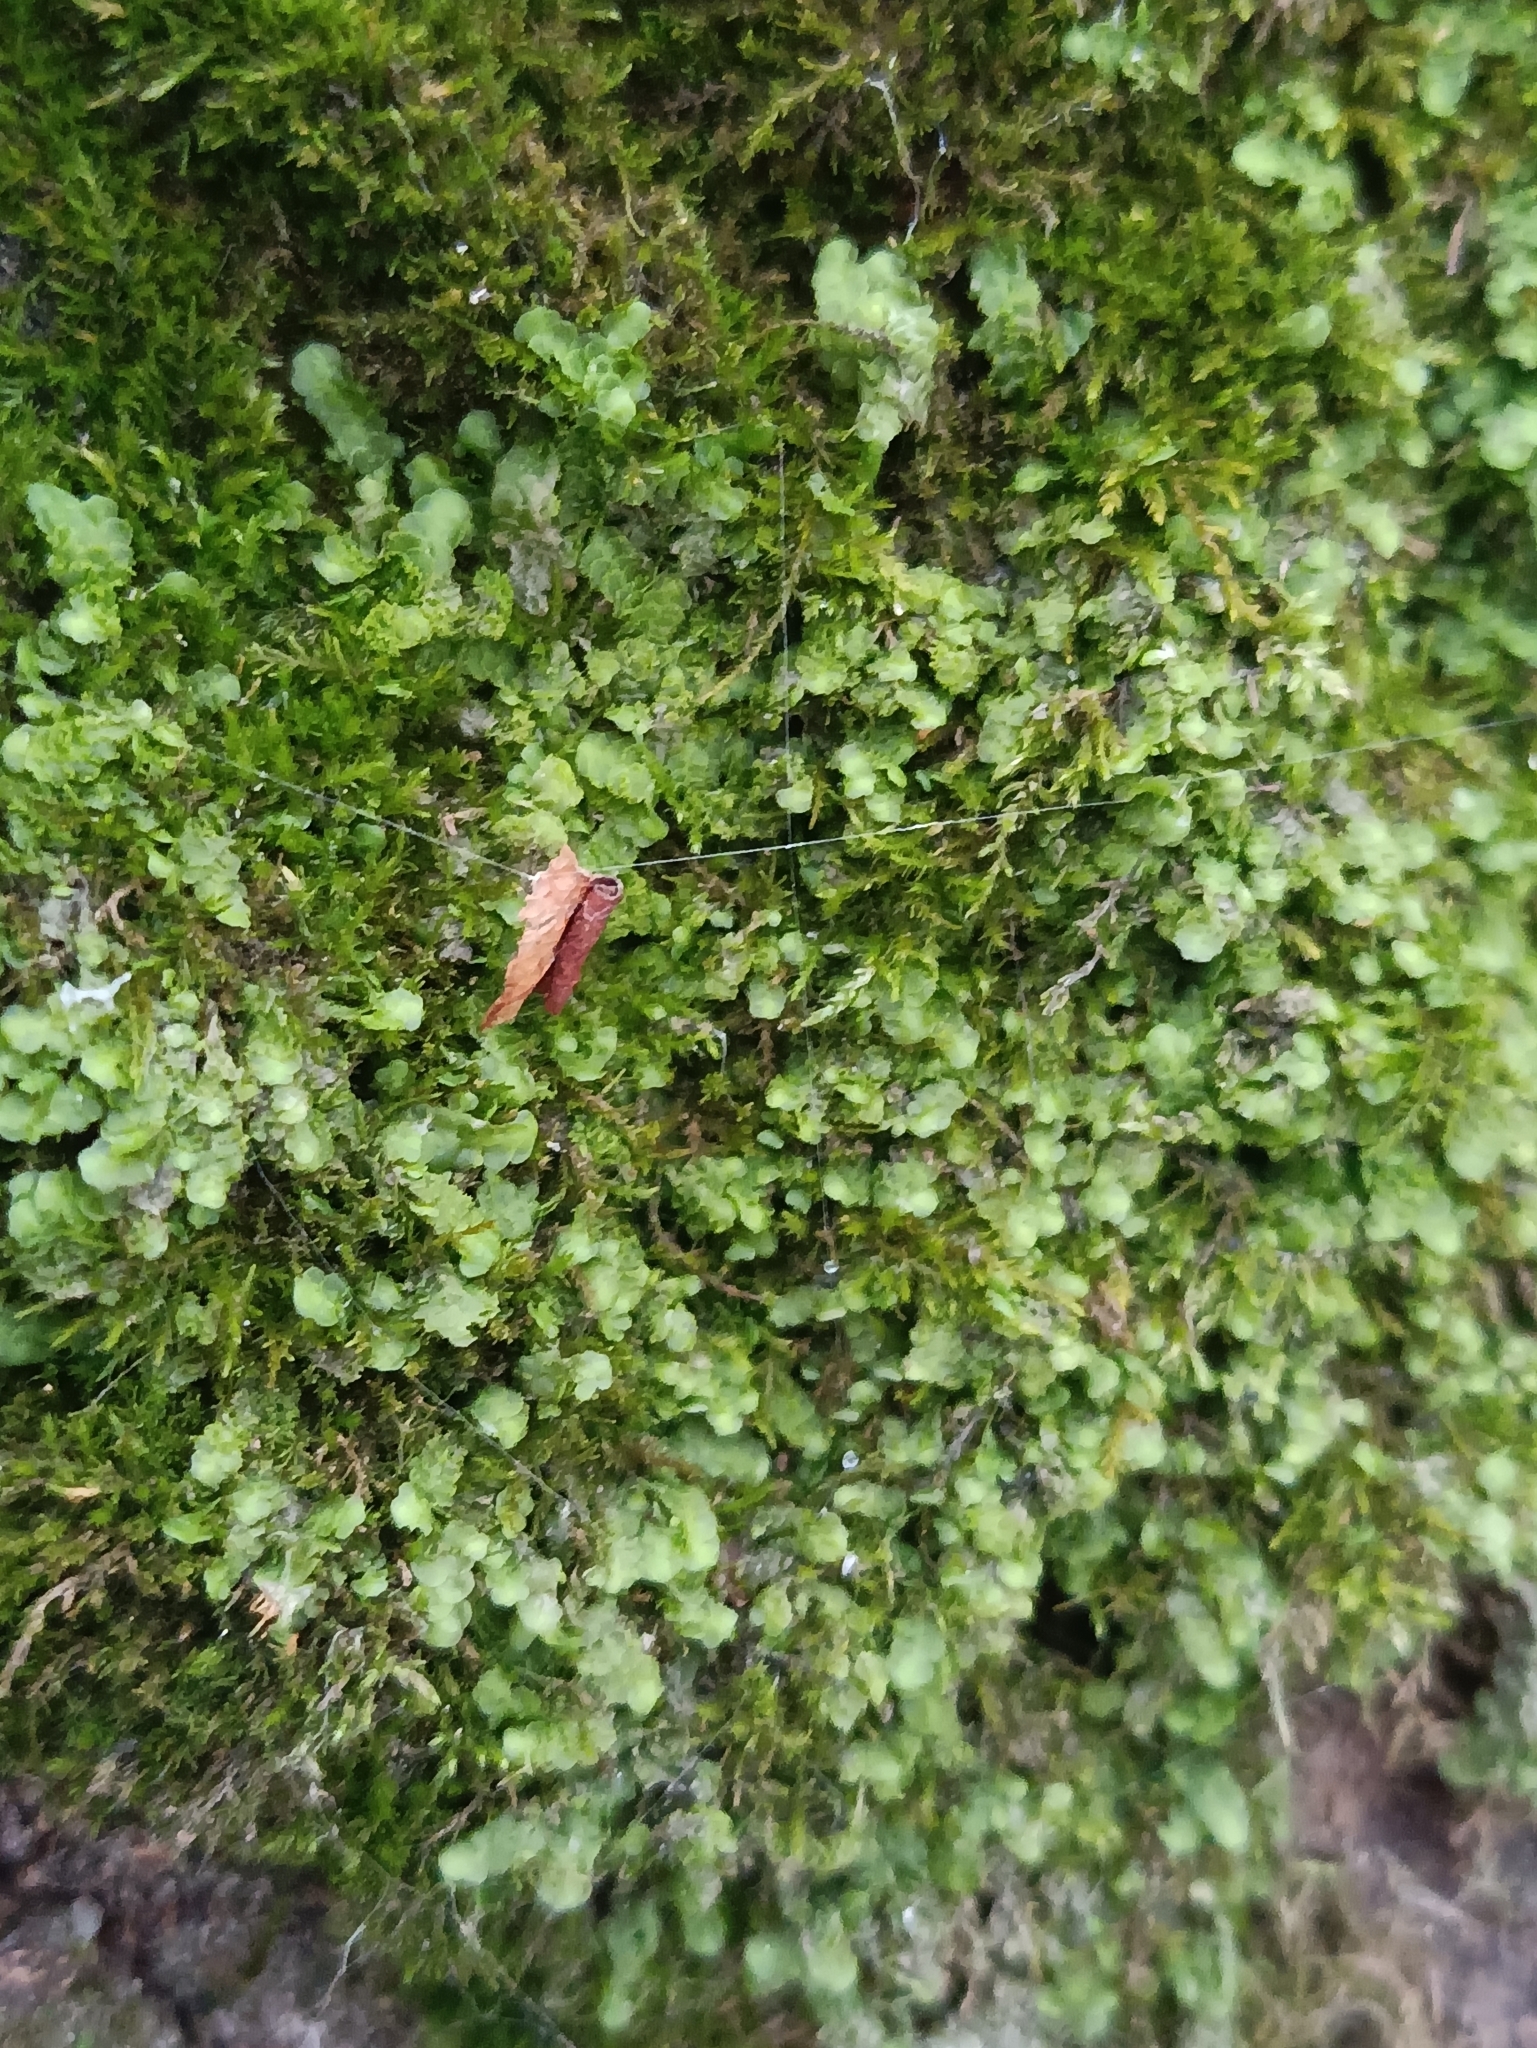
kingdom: Plantae
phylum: Marchantiophyta
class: Jungermanniopsida
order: Porellales
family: Radulaceae
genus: Radula
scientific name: Radula complanata
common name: Flat-leaved scalewort
